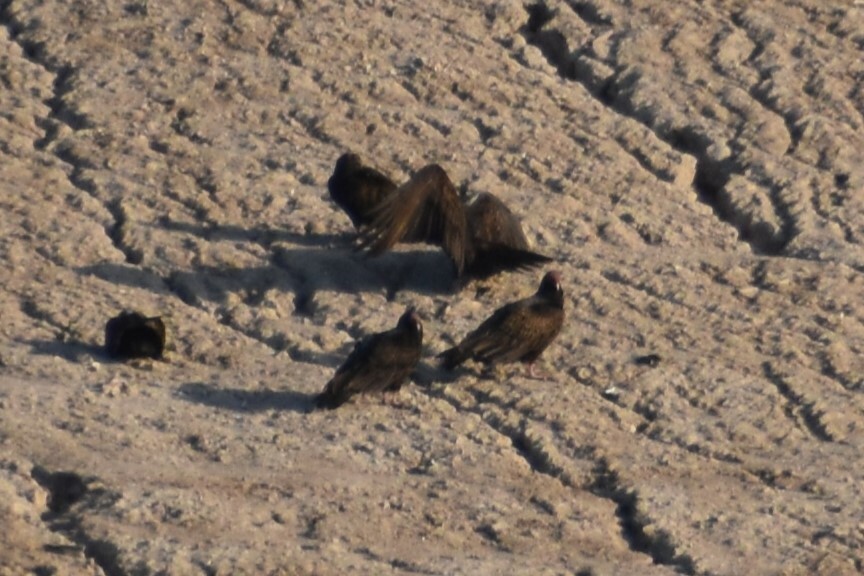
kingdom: Animalia
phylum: Chordata
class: Aves
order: Accipitriformes
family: Cathartidae
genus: Cathartes
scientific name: Cathartes aura
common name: Turkey vulture
